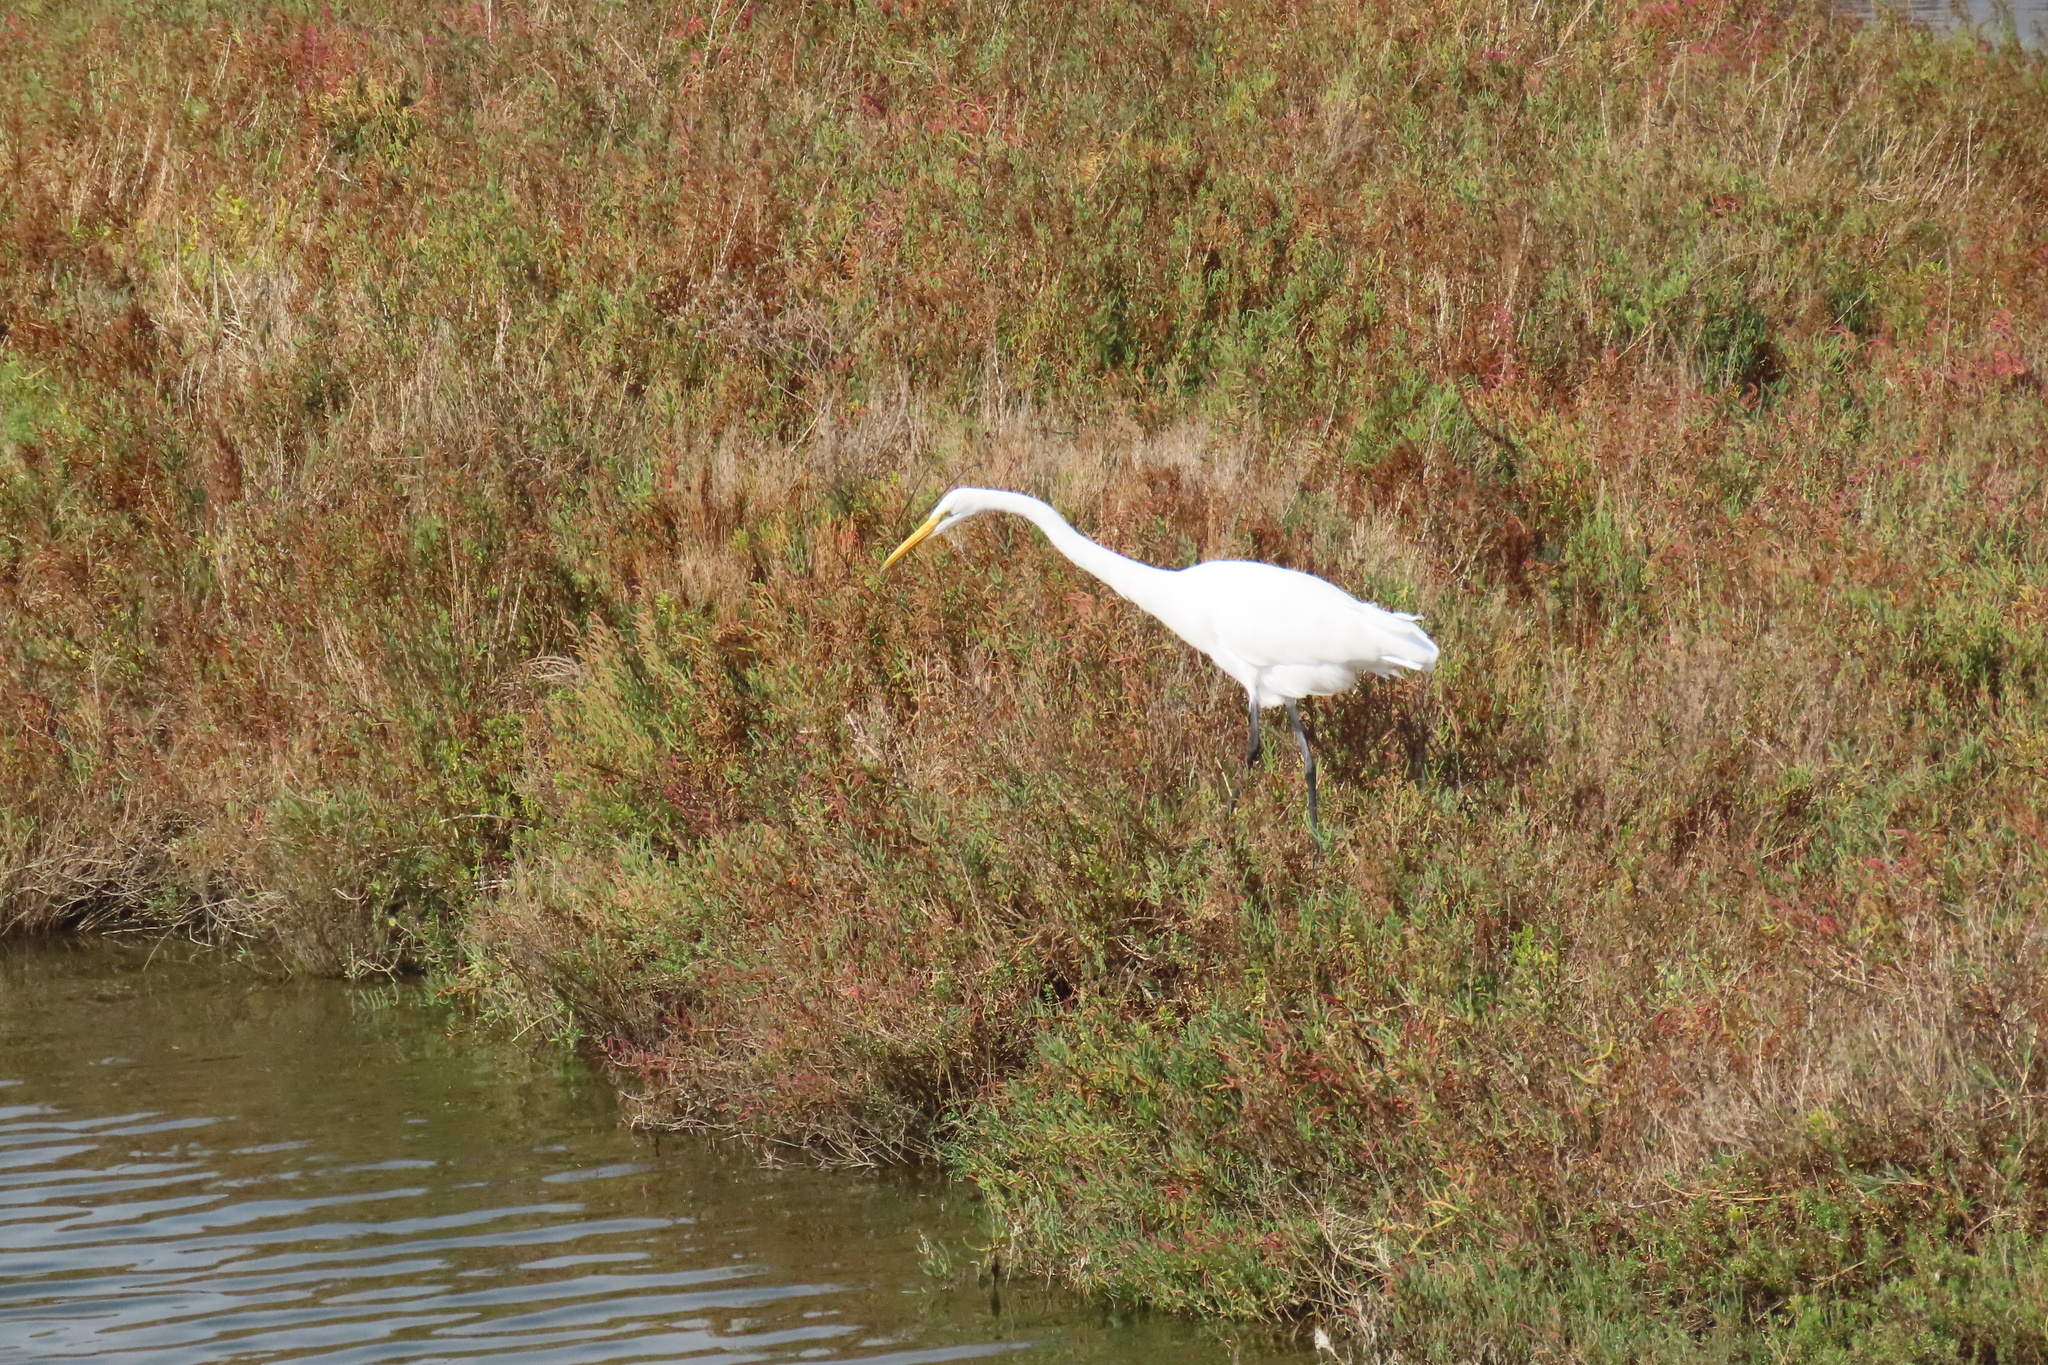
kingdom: Animalia
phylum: Chordata
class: Aves
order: Pelecaniformes
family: Ardeidae
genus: Ardea
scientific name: Ardea alba
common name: Great egret
